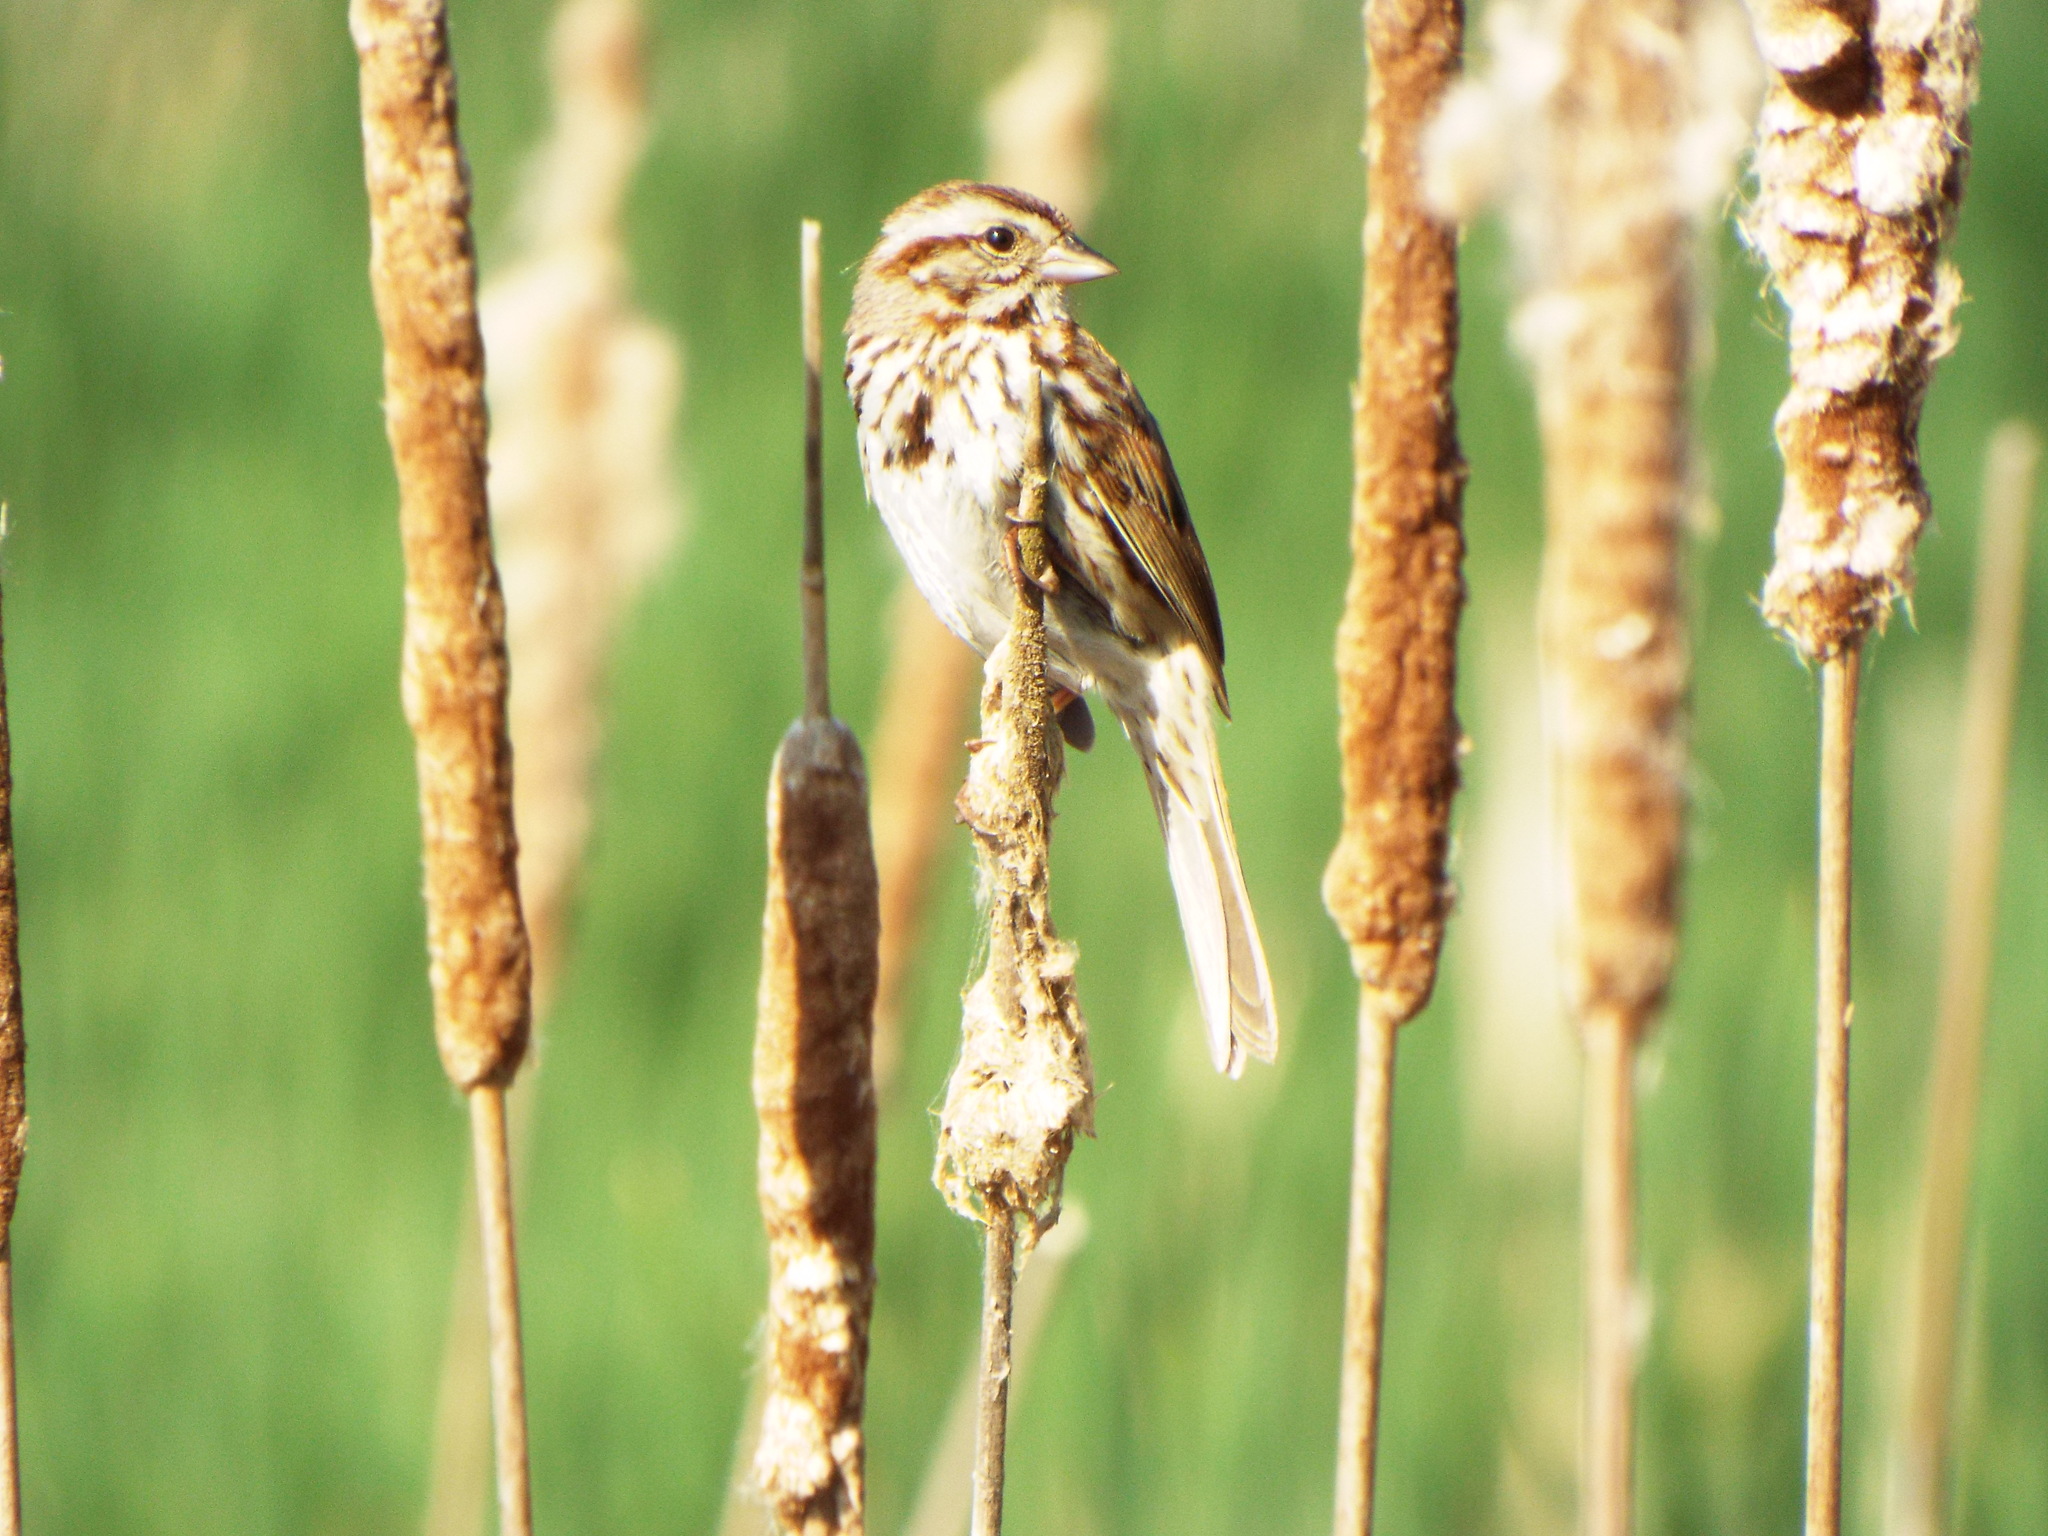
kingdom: Animalia
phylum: Chordata
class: Aves
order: Passeriformes
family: Passerellidae
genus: Melospiza
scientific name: Melospiza melodia
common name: Song sparrow
